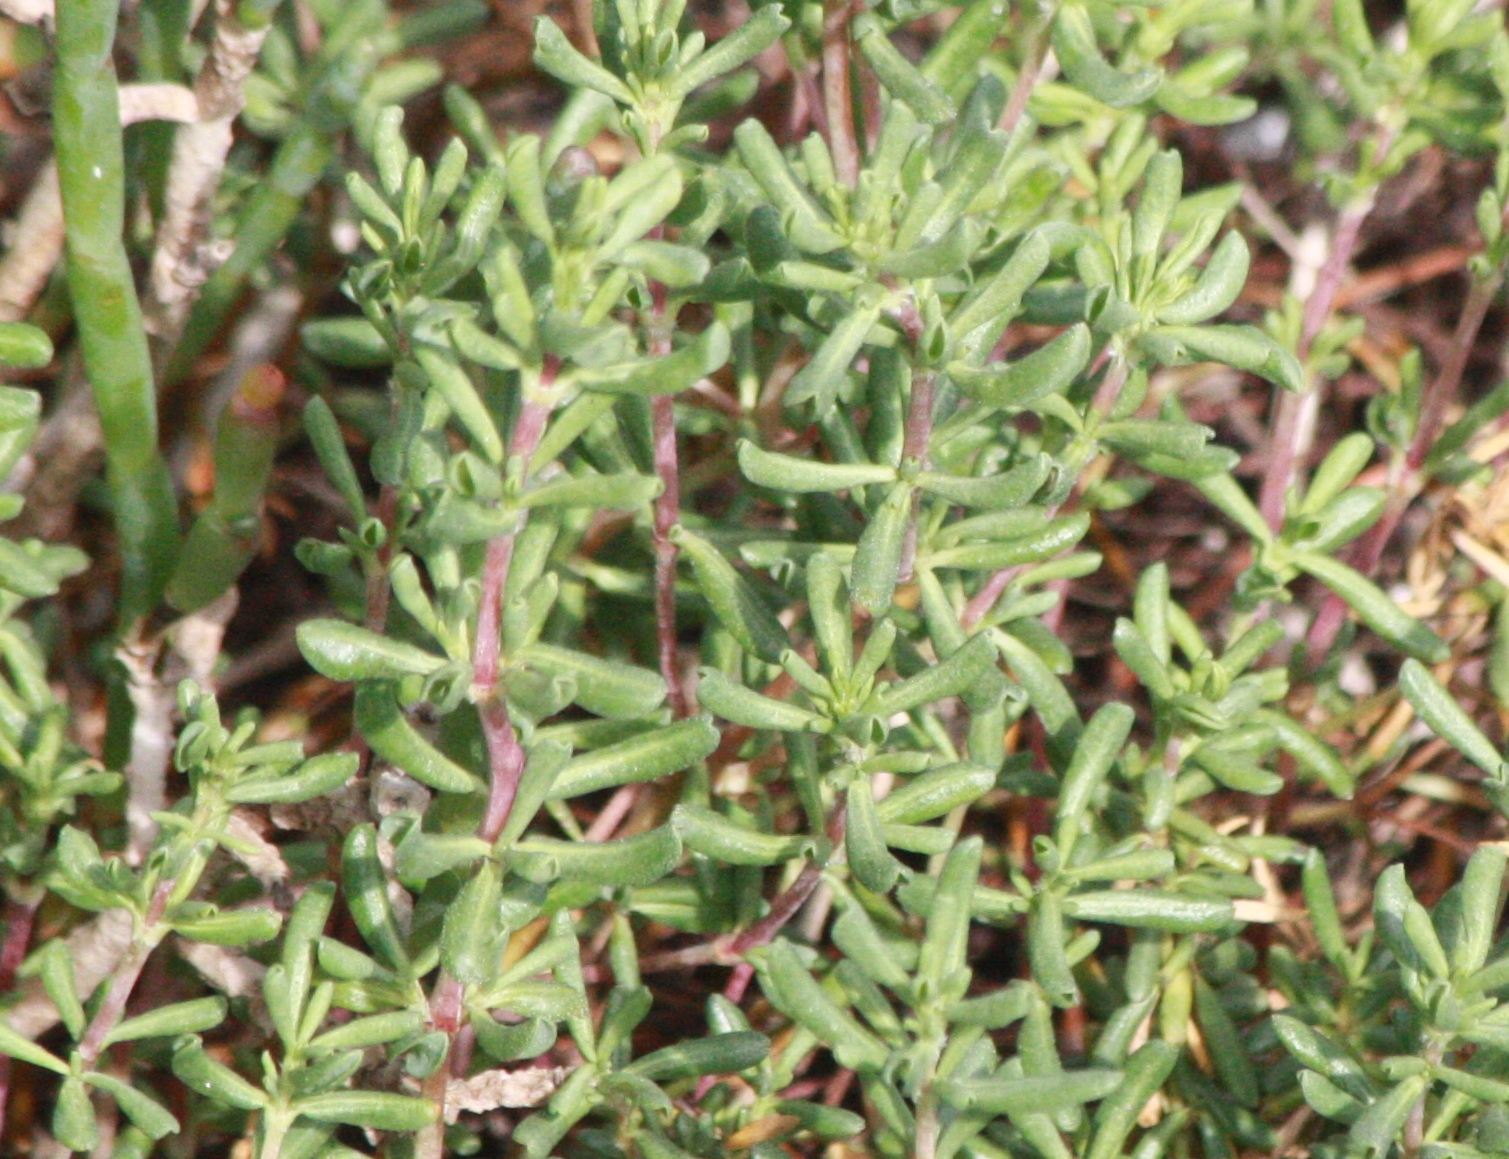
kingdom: Plantae
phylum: Tracheophyta
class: Magnoliopsida
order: Caryophyllales
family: Frankeniaceae
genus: Frankenia
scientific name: Frankenia salina
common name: Alkali seaheath
